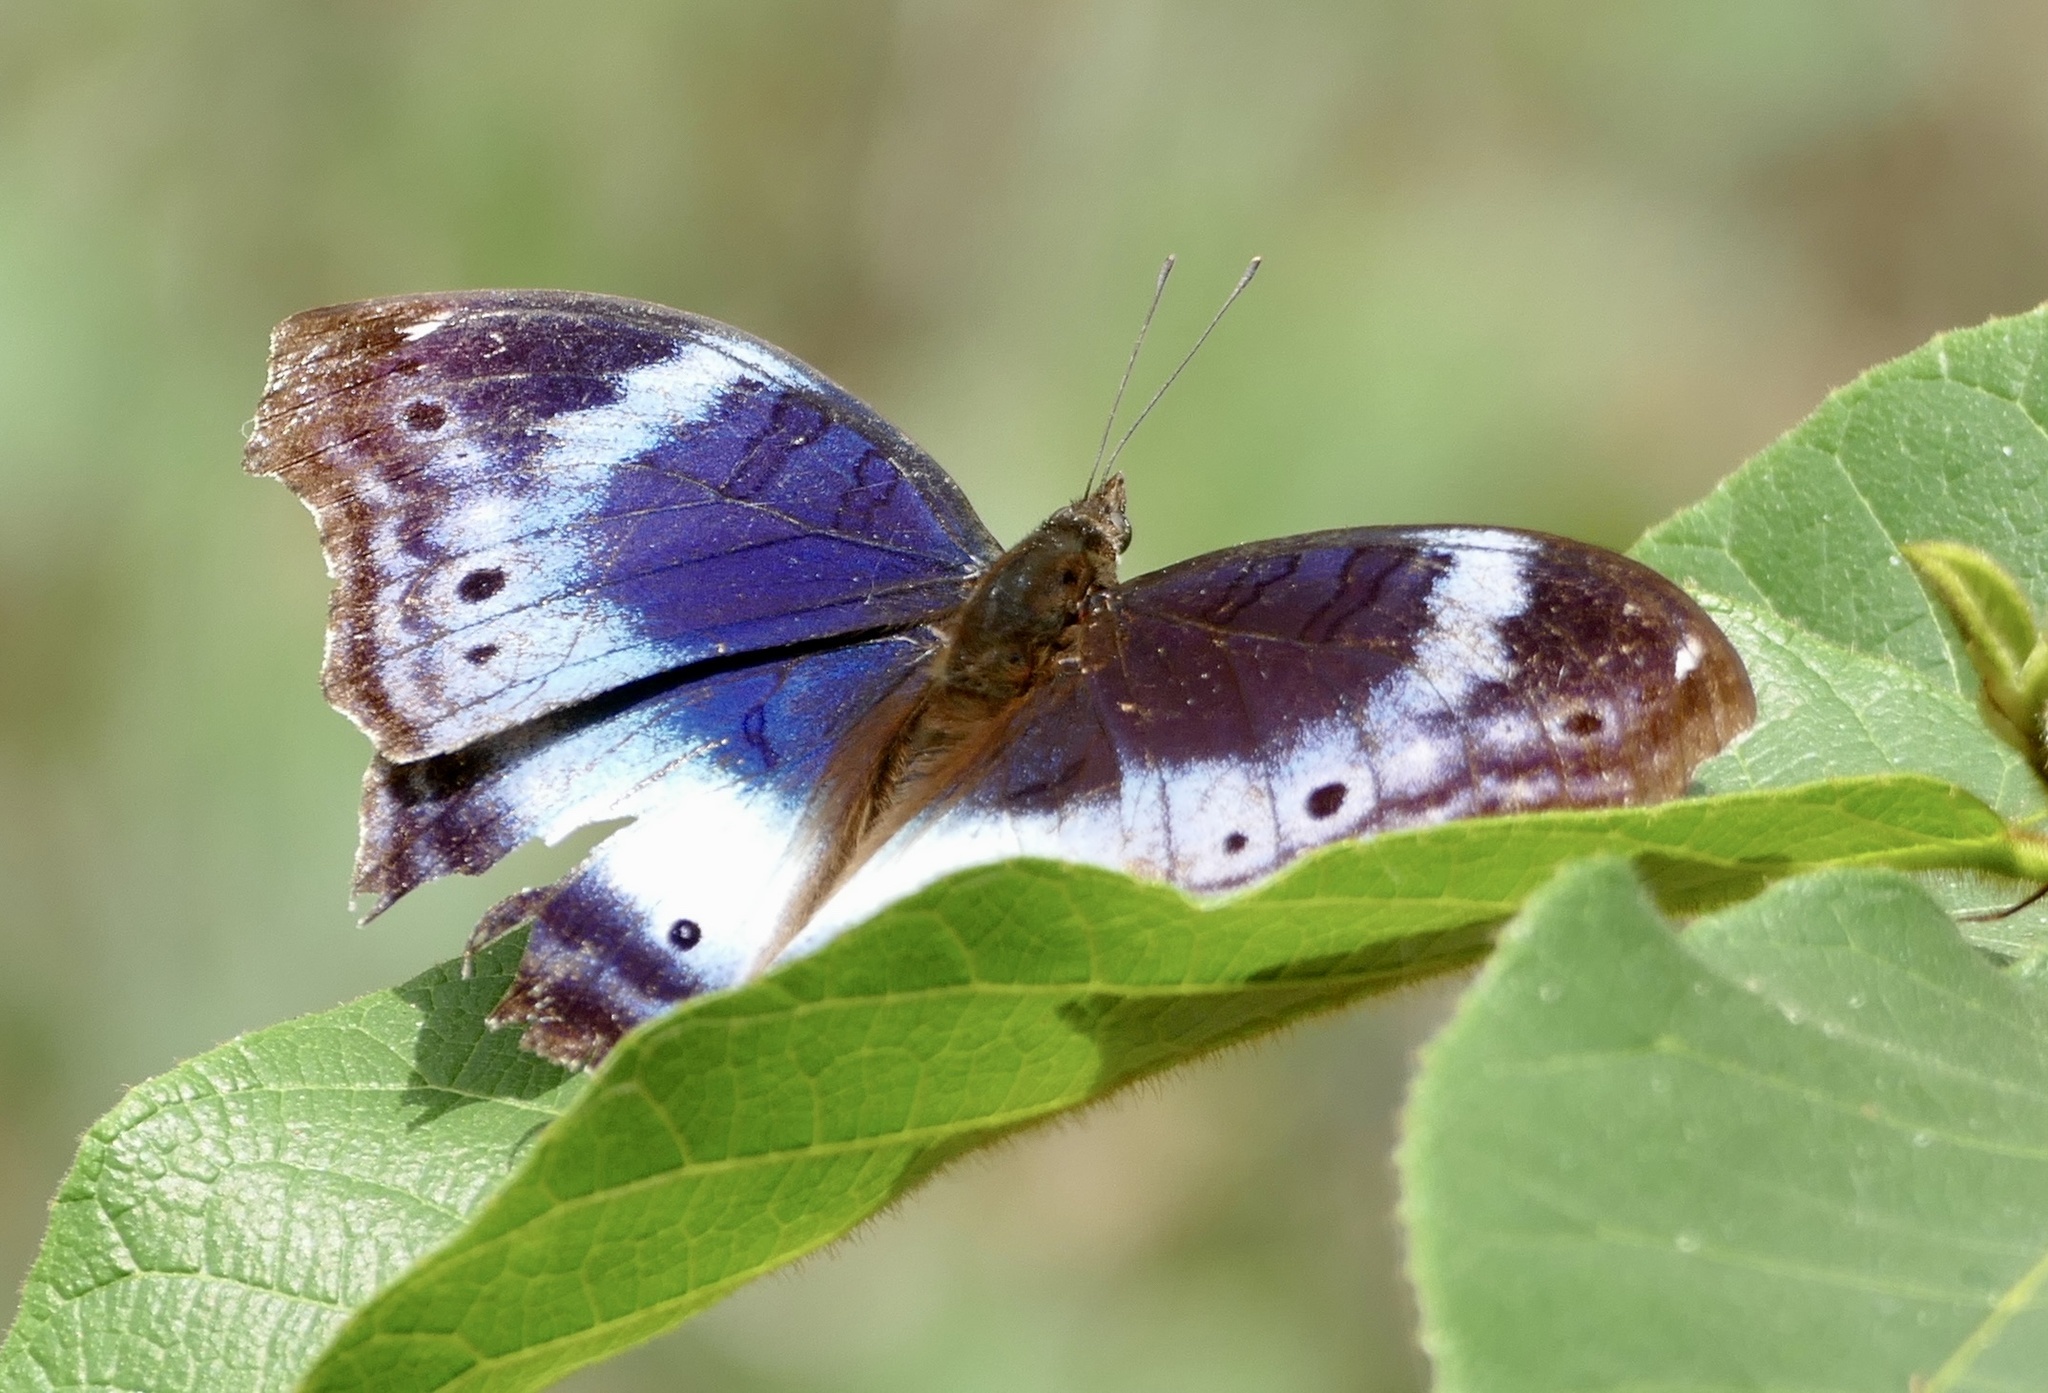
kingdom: Animalia
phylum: Arthropoda
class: Insecta
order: Lepidoptera
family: Nymphalidae
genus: Junonia
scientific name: Junonia
